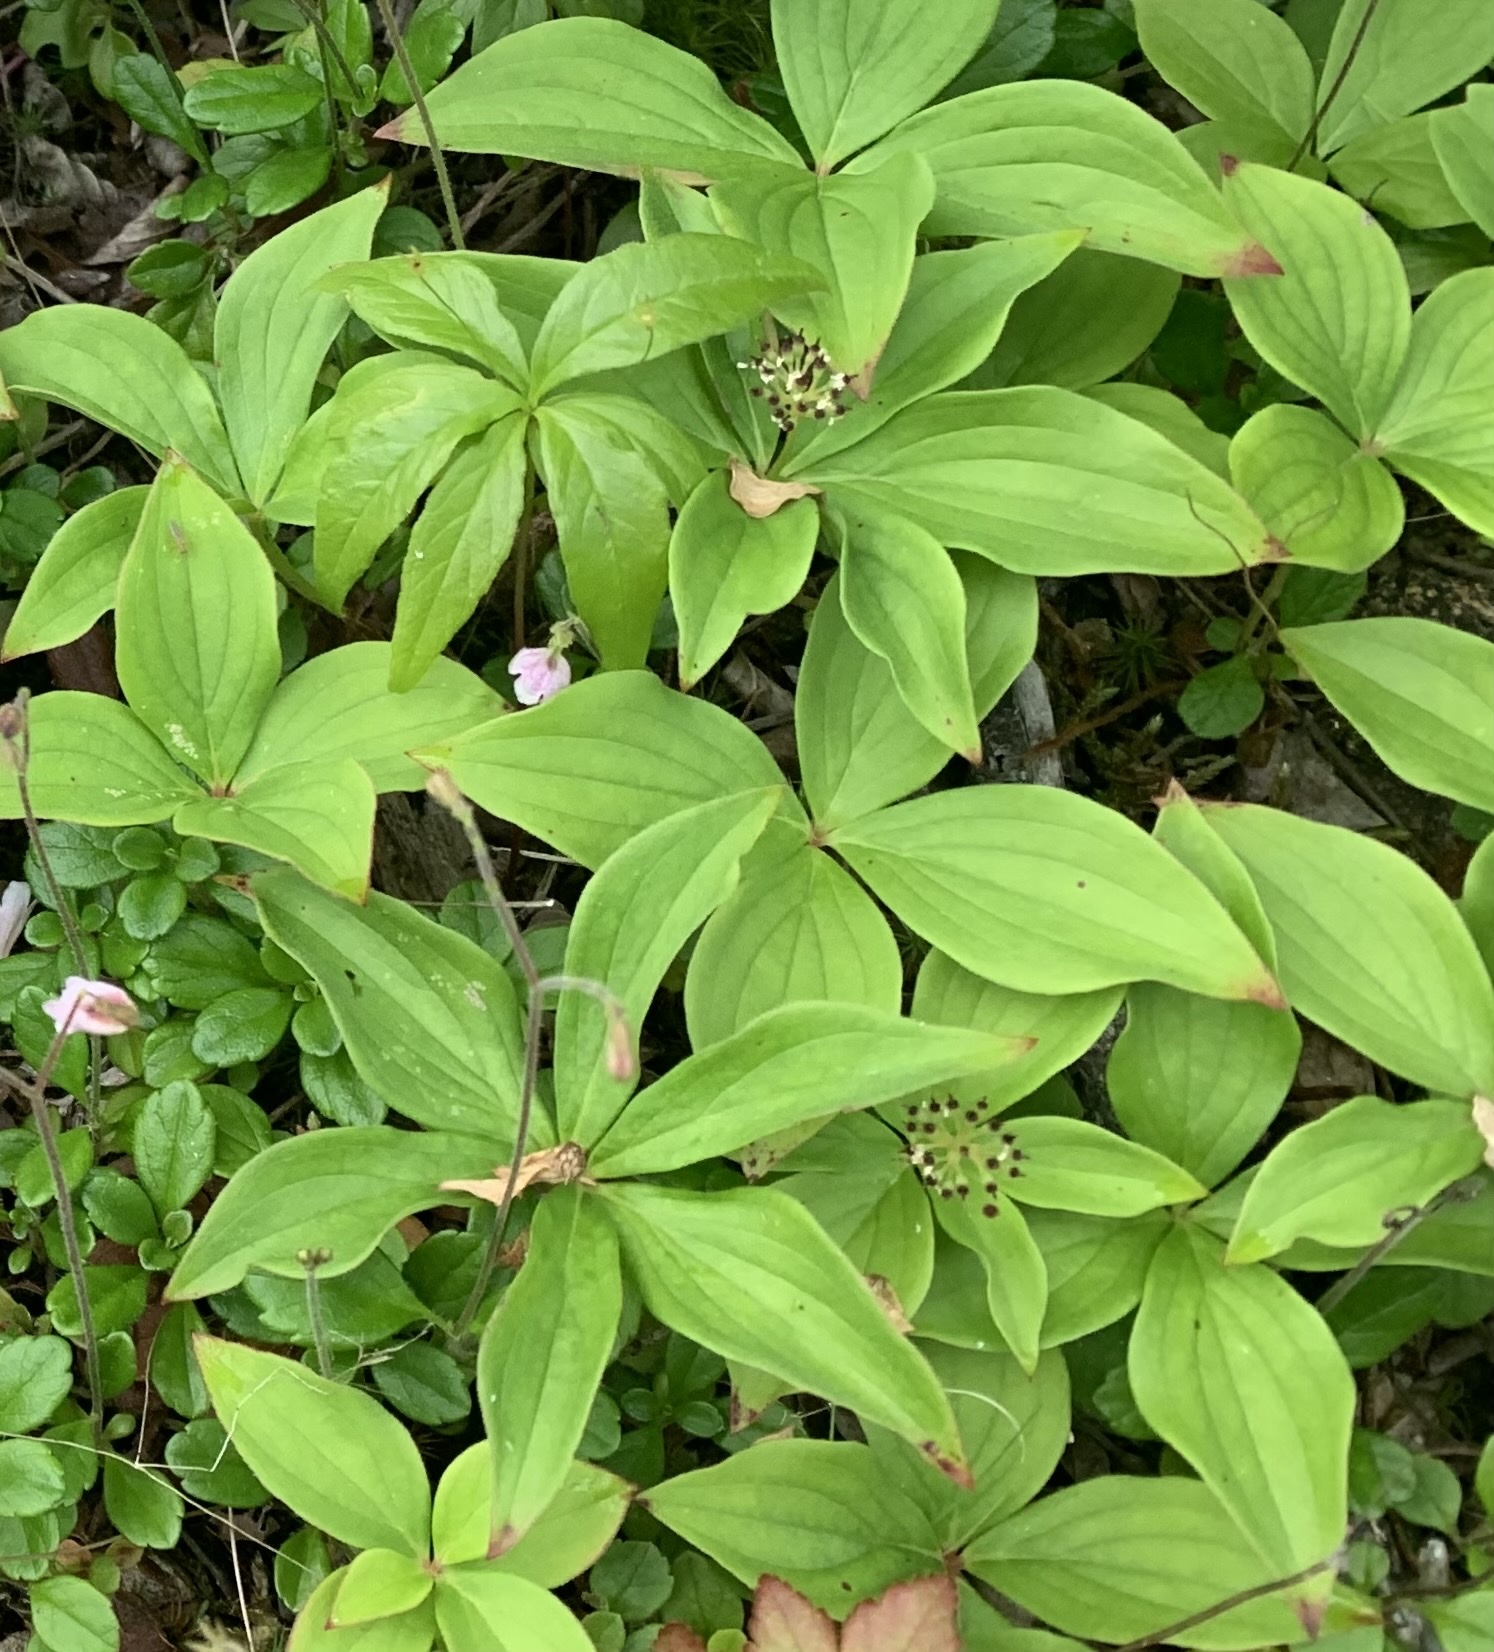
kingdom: Plantae
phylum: Tracheophyta
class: Magnoliopsida
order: Cornales
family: Cornaceae
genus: Cornus
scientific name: Cornus canadensis
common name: Creeping dogwood
